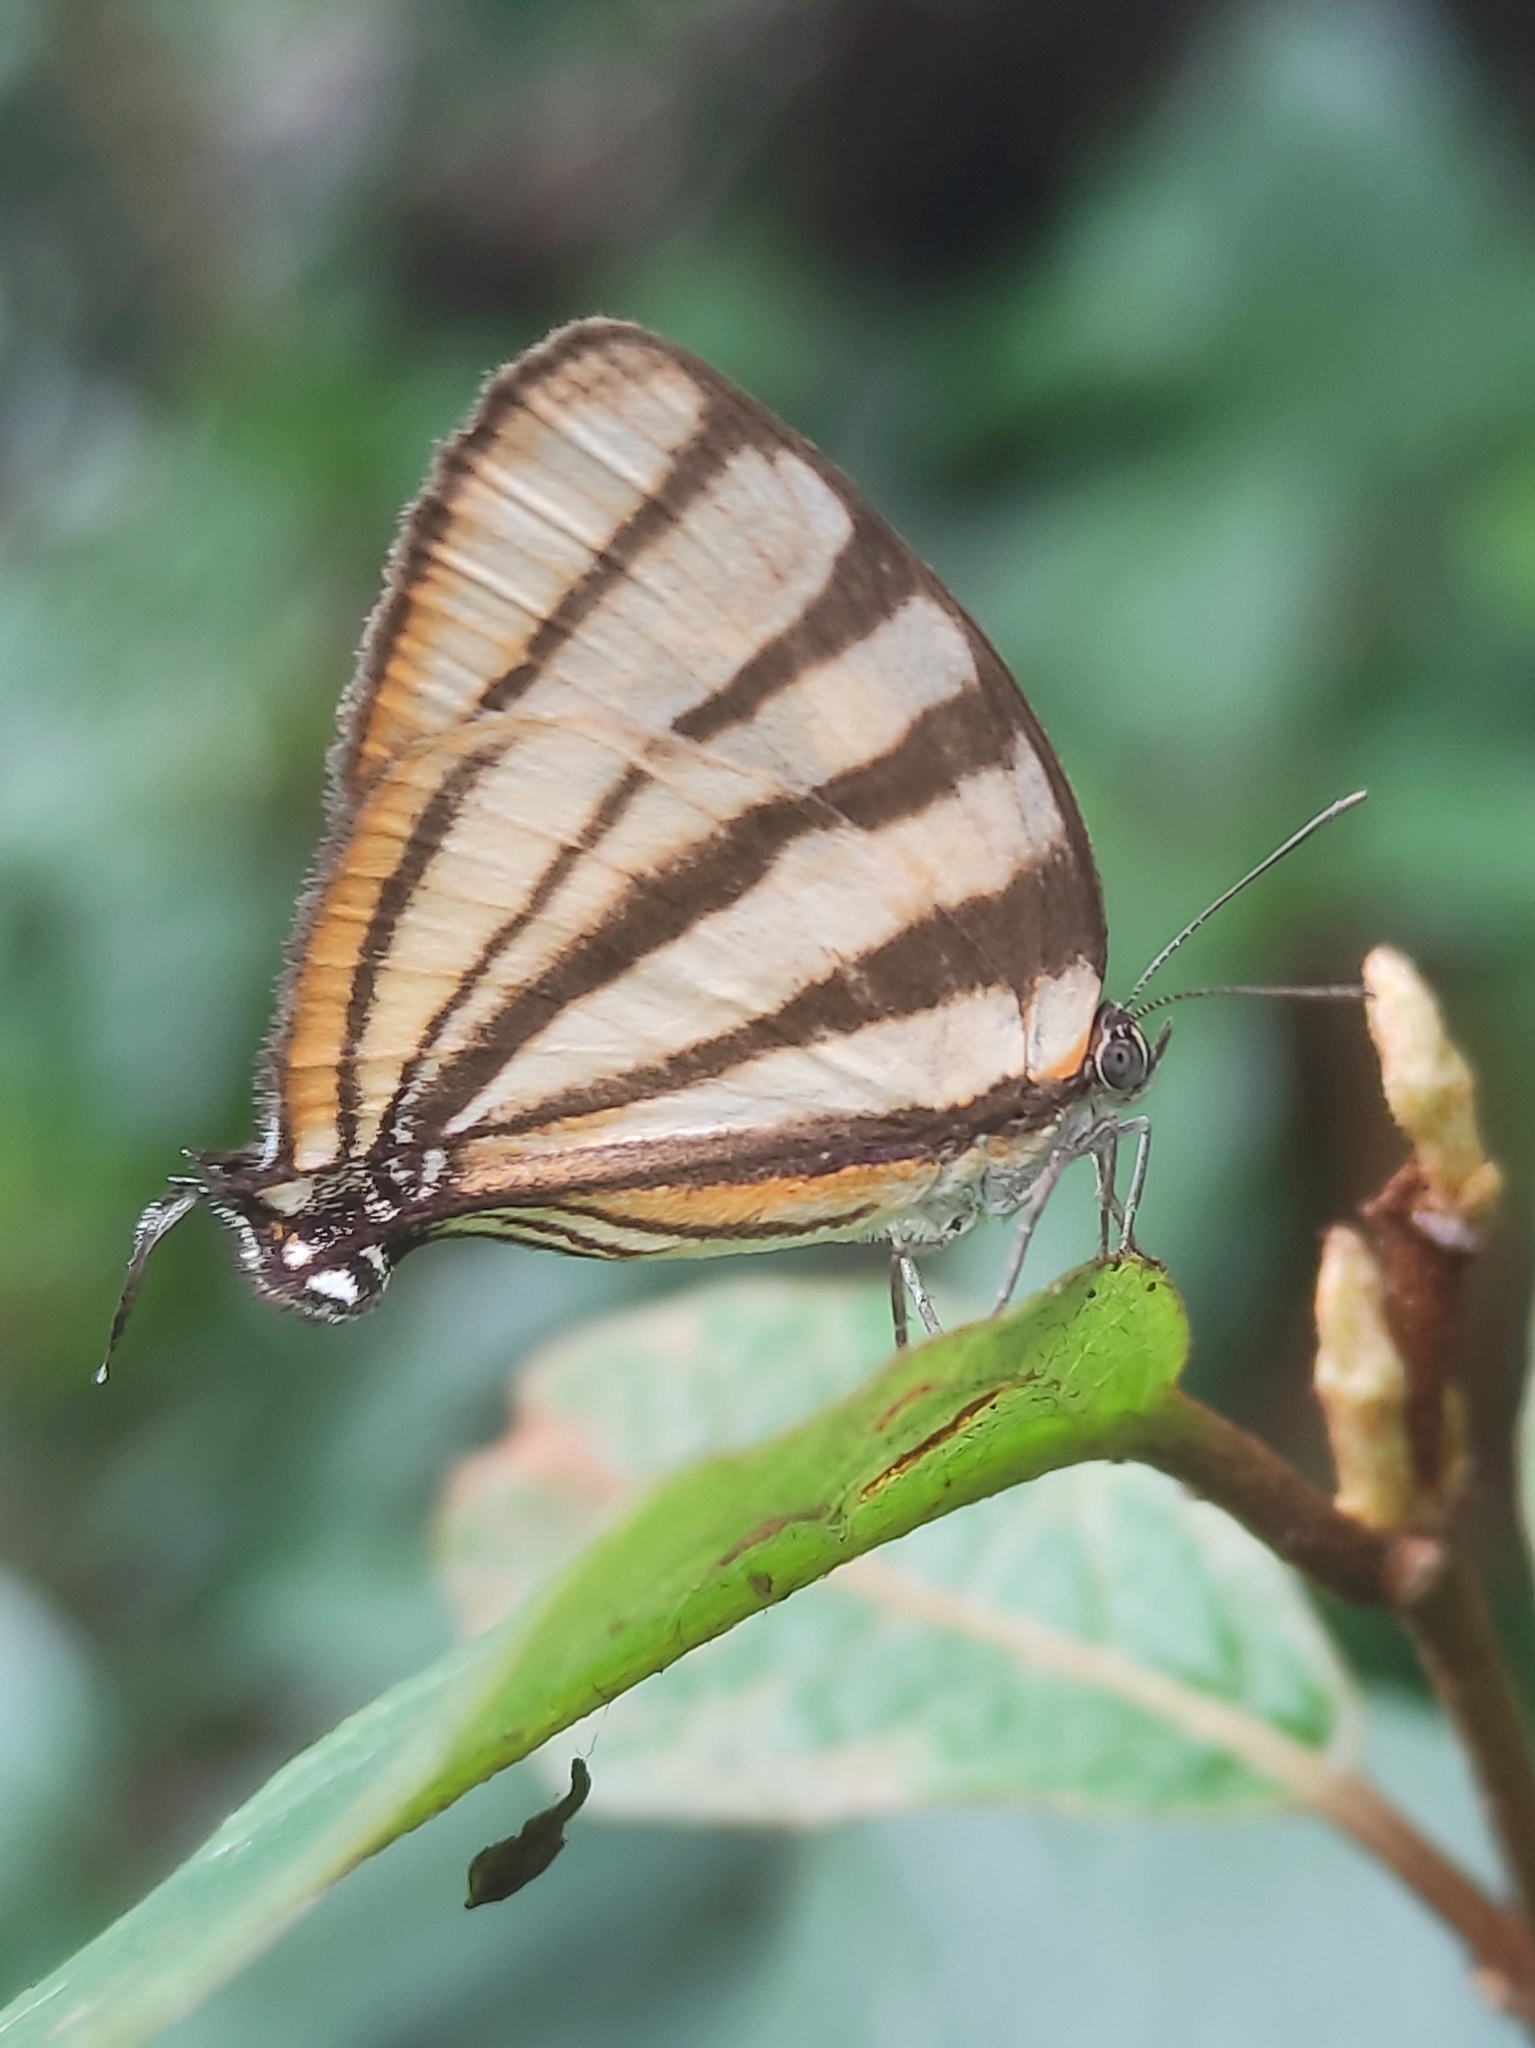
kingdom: Animalia
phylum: Arthropoda
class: Insecta
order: Lepidoptera
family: Lycaenidae
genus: Arawacus
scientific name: Arawacus separata
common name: Separated stripestreak
